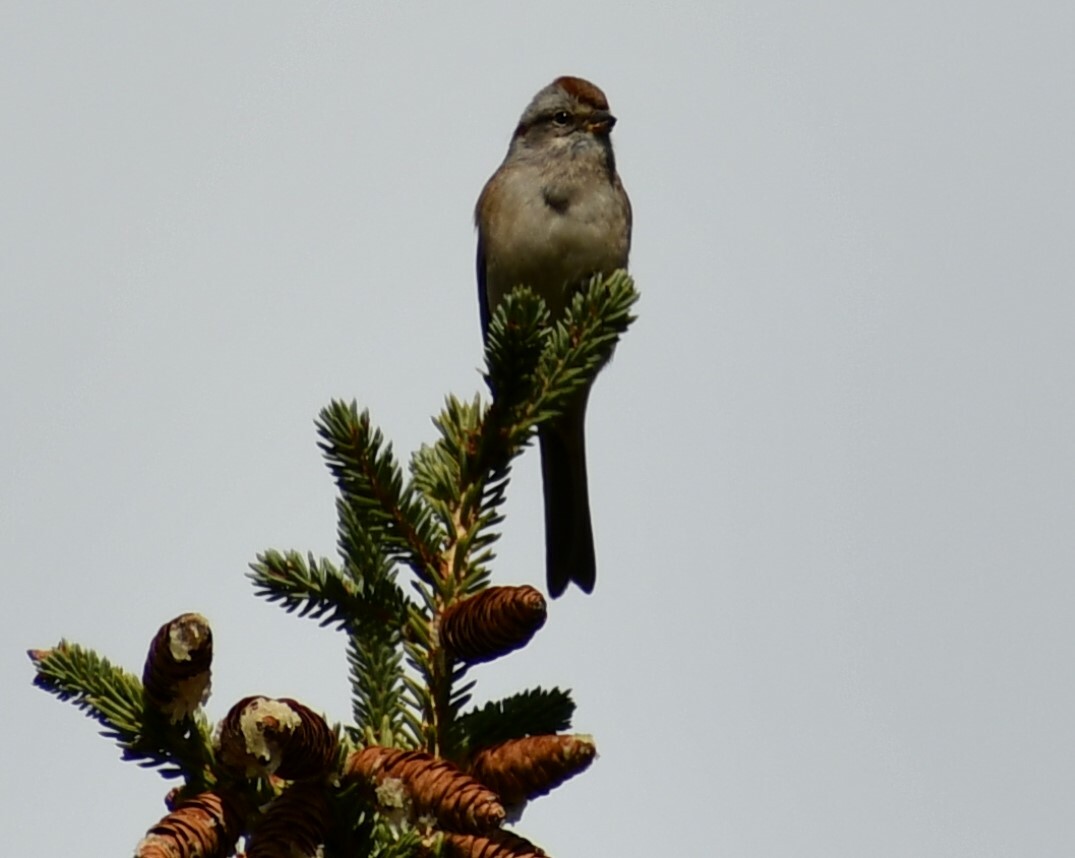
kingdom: Animalia
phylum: Chordata
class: Aves
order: Passeriformes
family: Passerellidae
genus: Spizelloides
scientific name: Spizelloides arborea
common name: American tree sparrow
